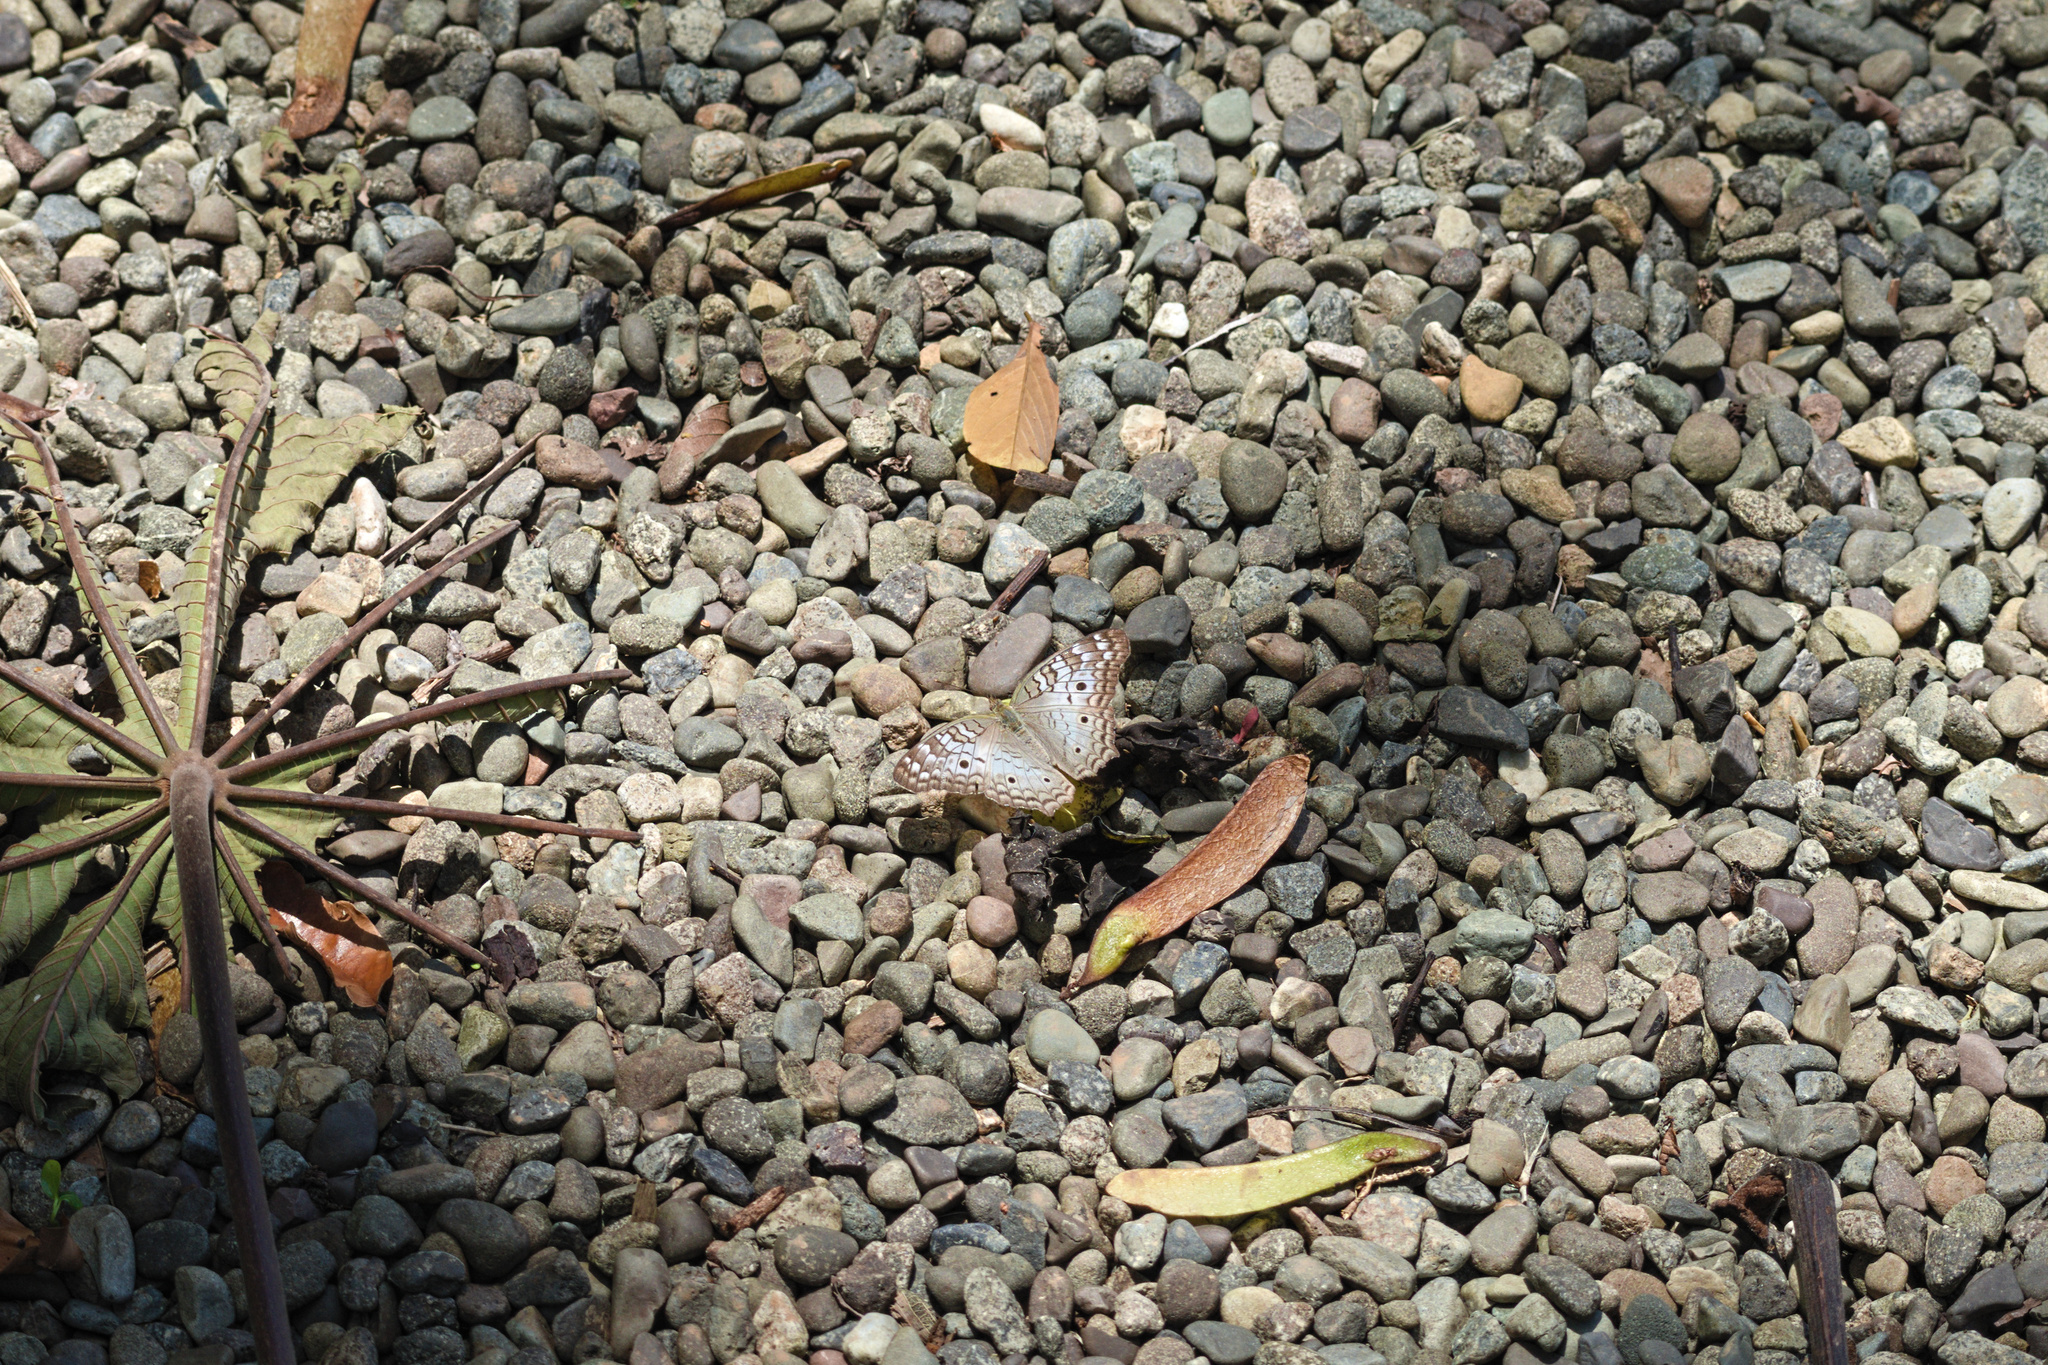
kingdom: Animalia
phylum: Arthropoda
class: Insecta
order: Lepidoptera
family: Nymphalidae
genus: Anartia
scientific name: Anartia jatrophae
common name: White peacock
